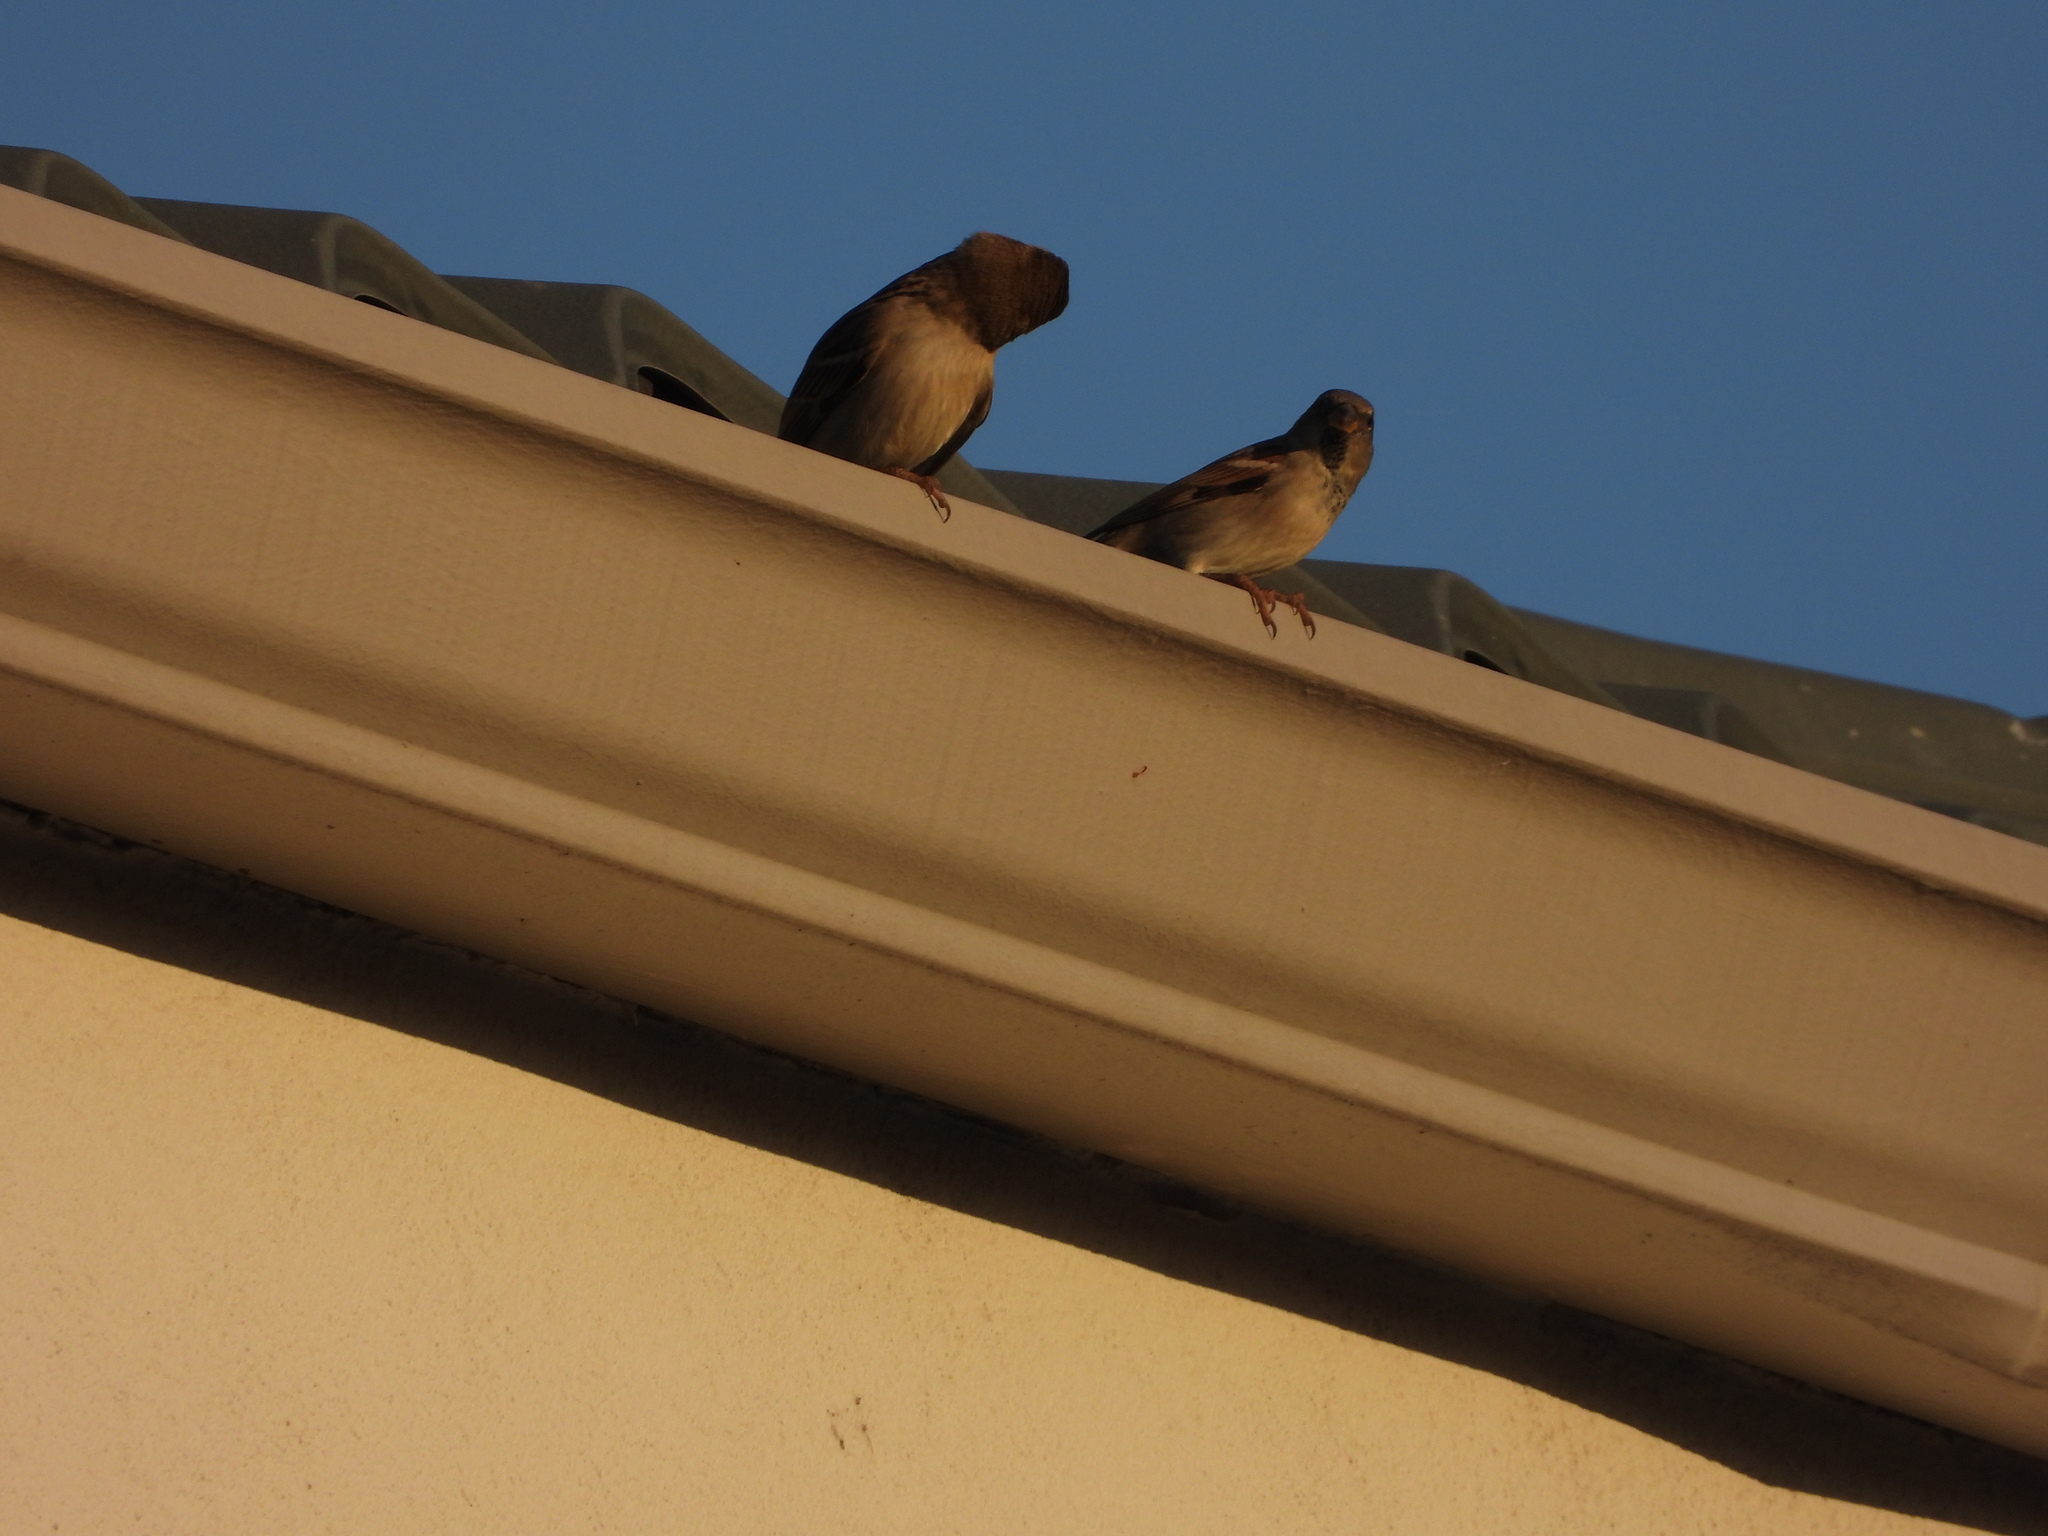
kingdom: Animalia
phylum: Chordata
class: Aves
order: Passeriformes
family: Passeridae
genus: Passer
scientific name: Passer domesticus
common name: House sparrow
